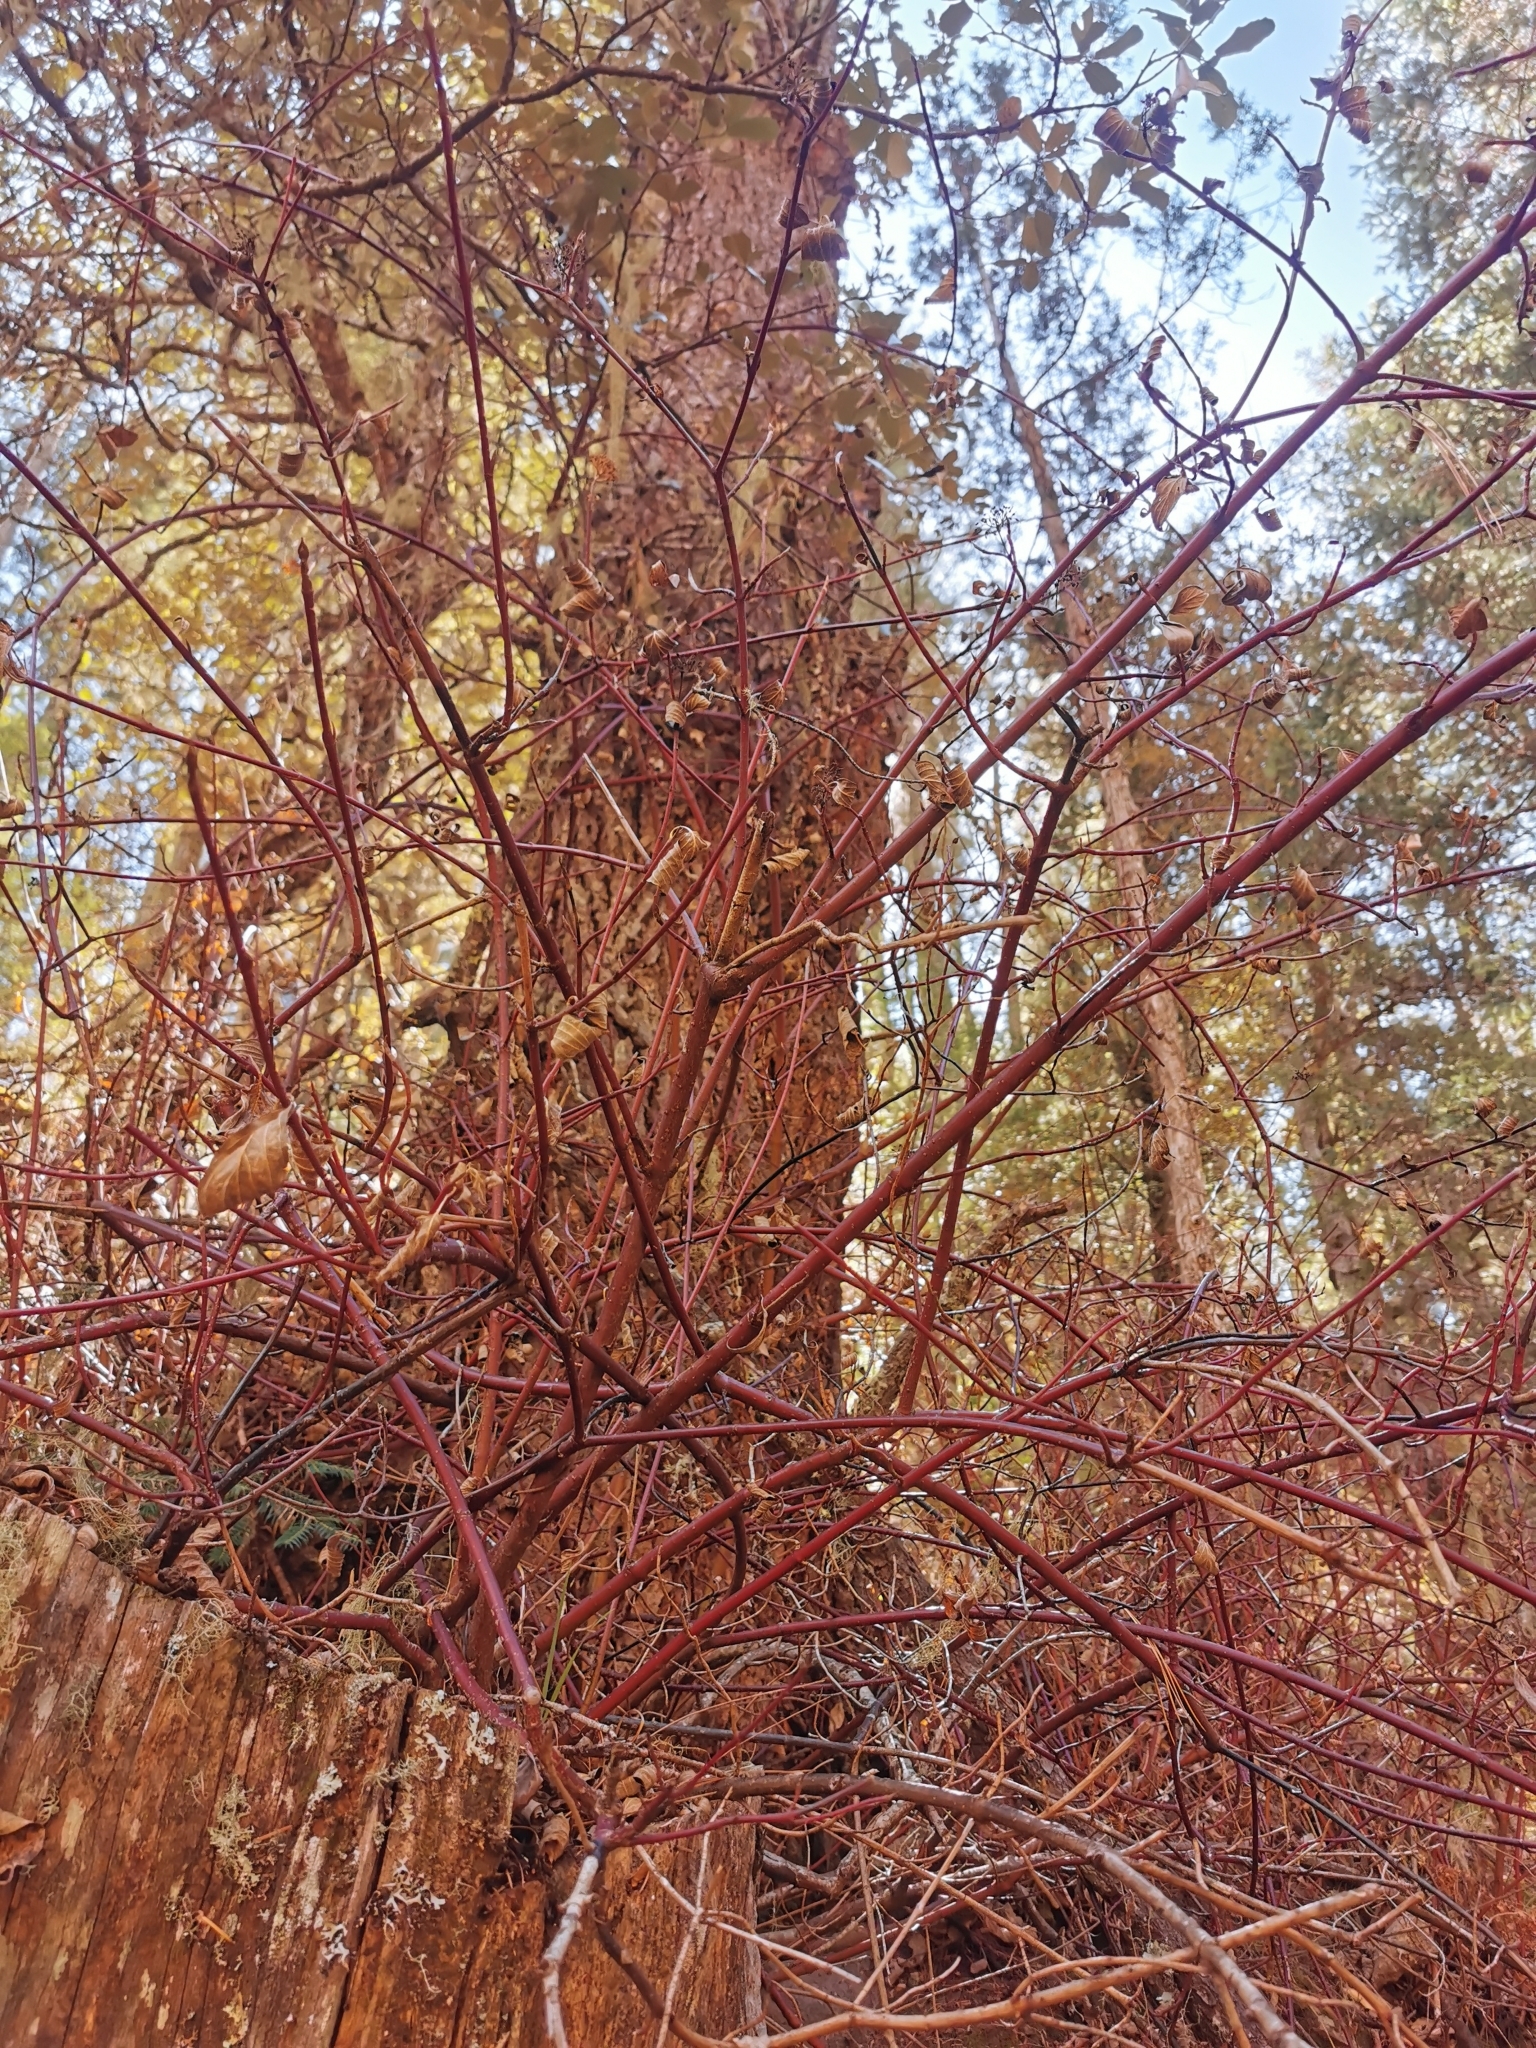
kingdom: Plantae
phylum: Tracheophyta
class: Magnoliopsida
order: Cornales
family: Cornaceae
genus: Cornus
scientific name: Cornus sericea
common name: Red-osier dogwood
